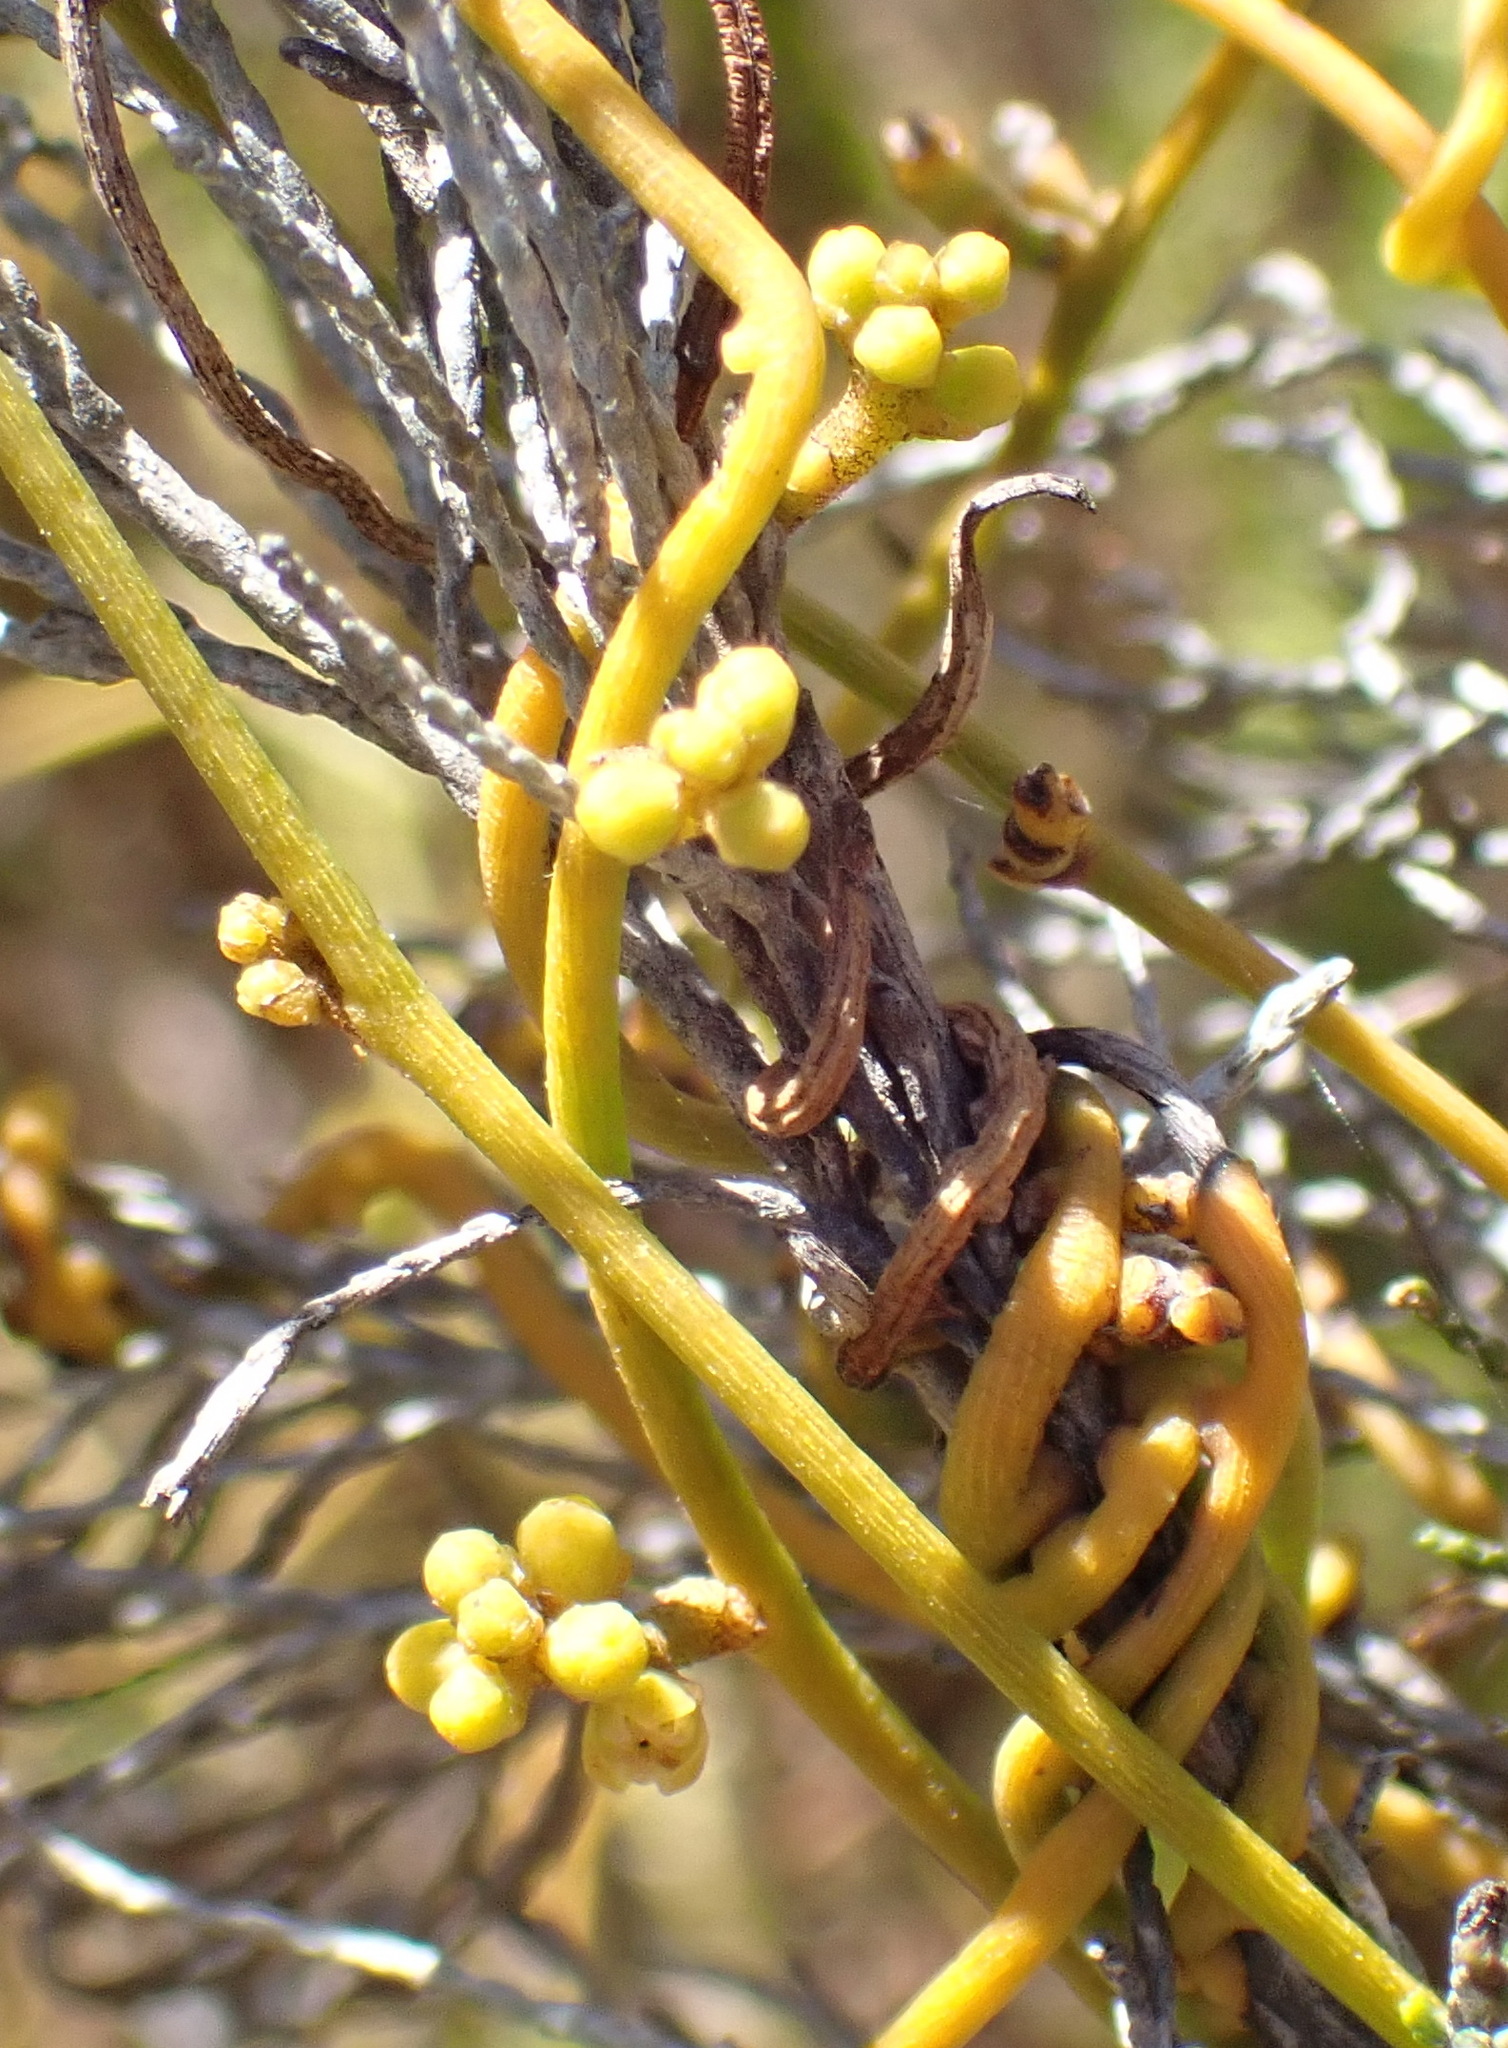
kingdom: Plantae
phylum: Tracheophyta
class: Magnoliopsida
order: Laurales
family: Lauraceae
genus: Cassytha
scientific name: Cassytha ciliolata
